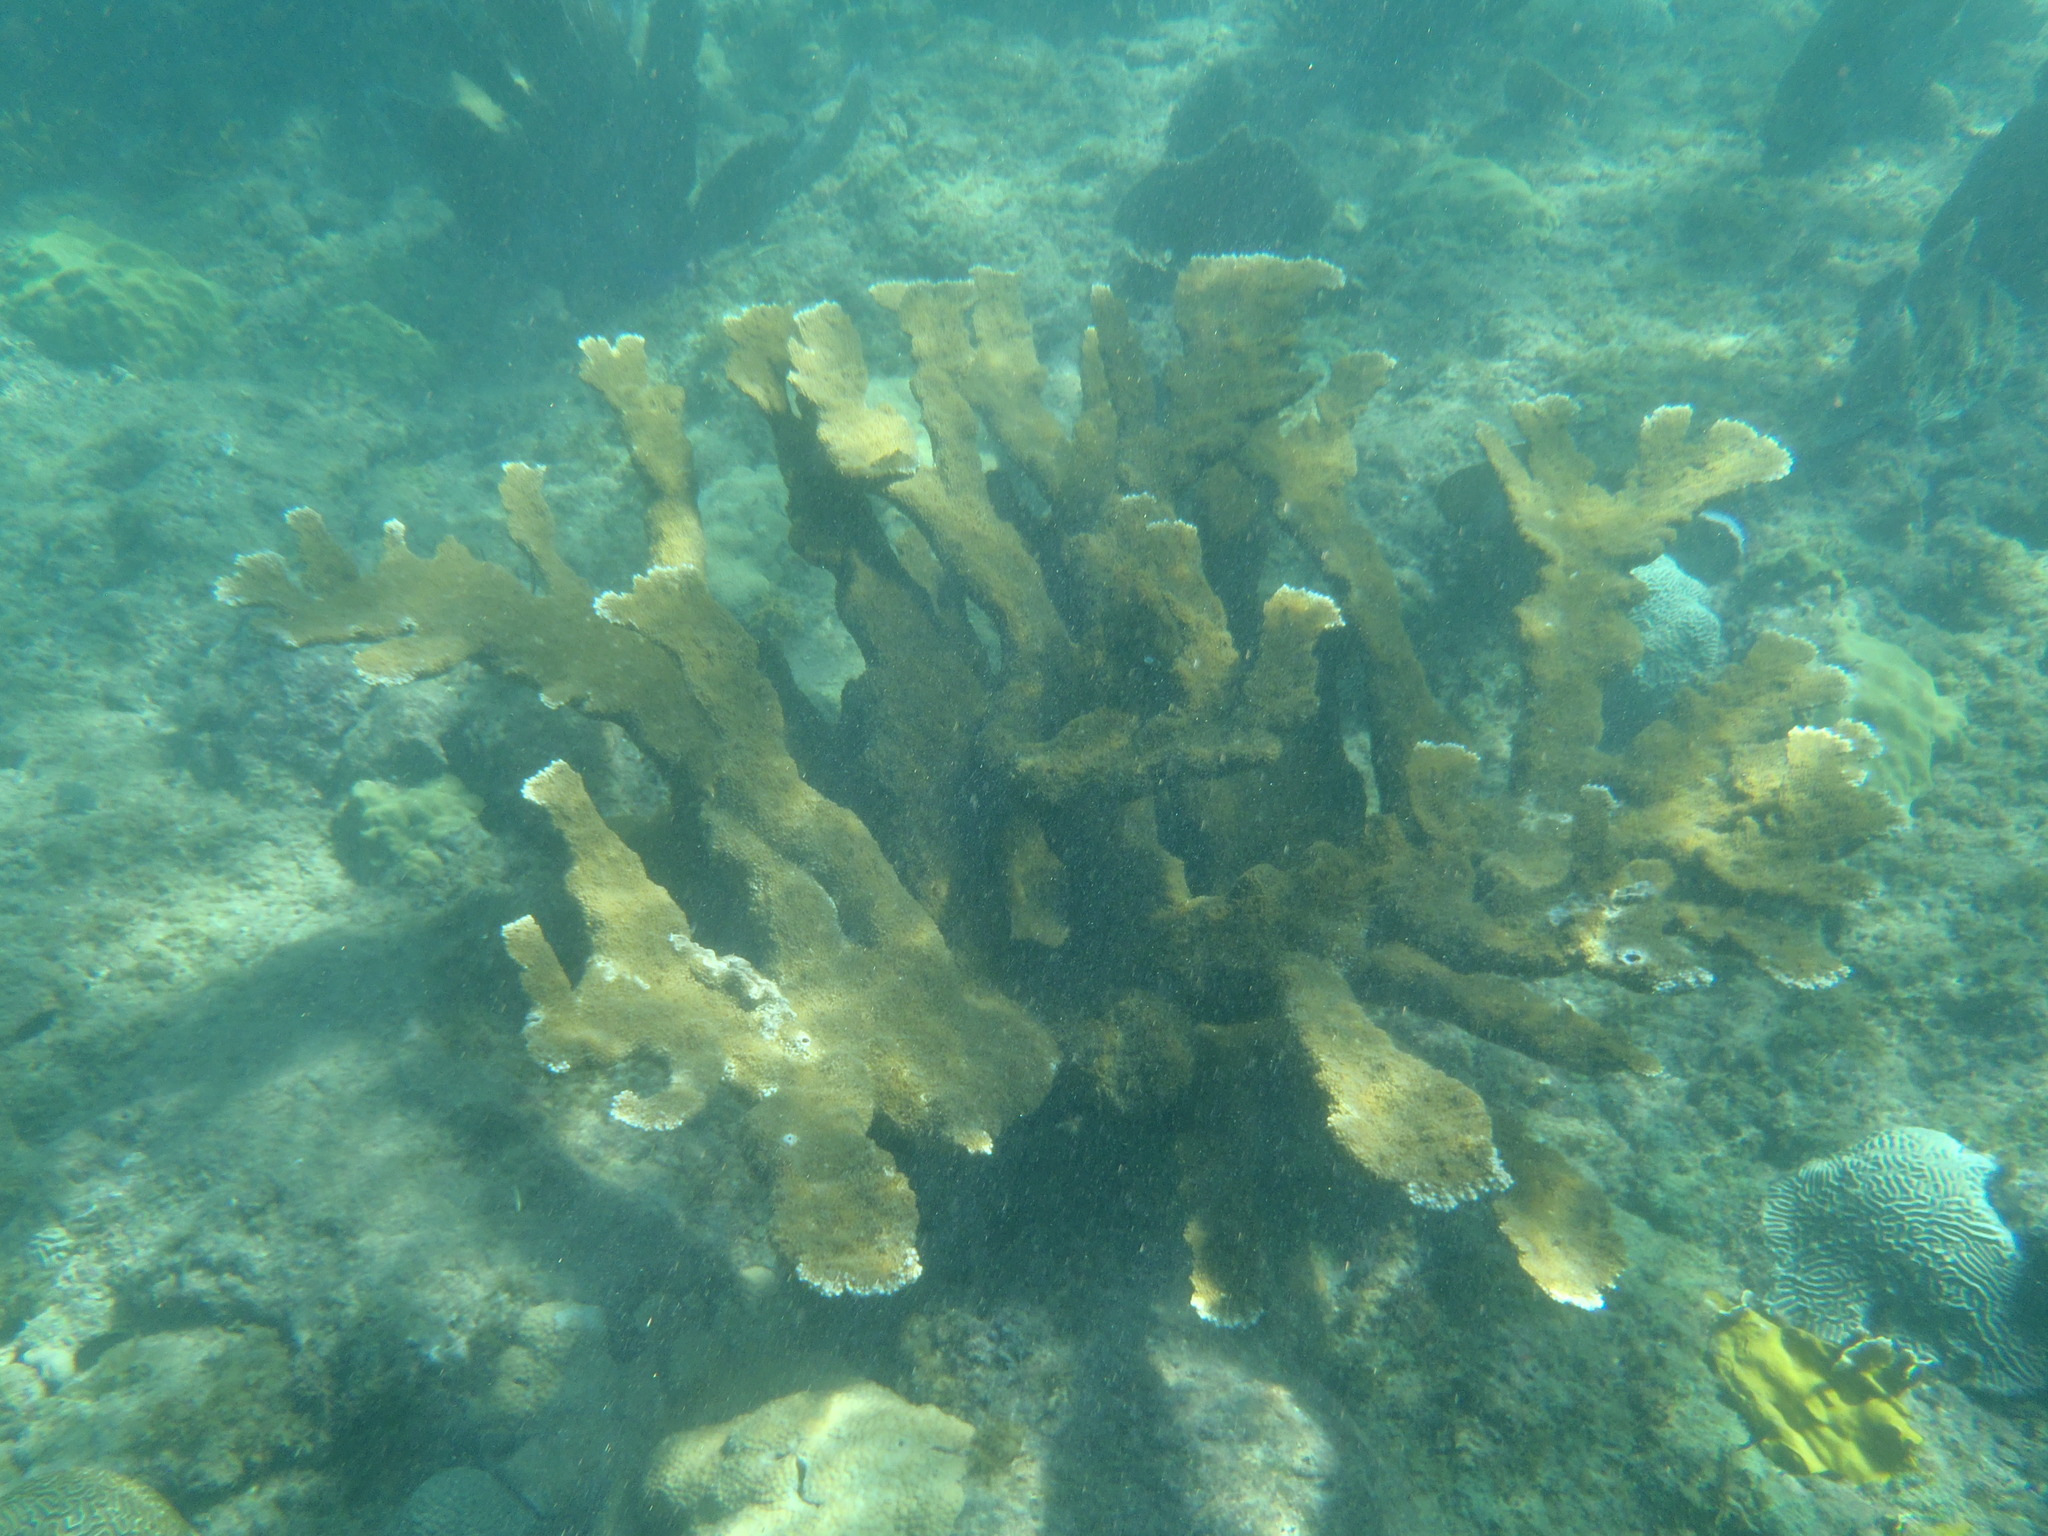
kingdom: Animalia
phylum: Cnidaria
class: Anthozoa
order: Scleractinia
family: Acroporidae
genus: Acropora
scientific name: Acropora palmata
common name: Elkhorn coral
